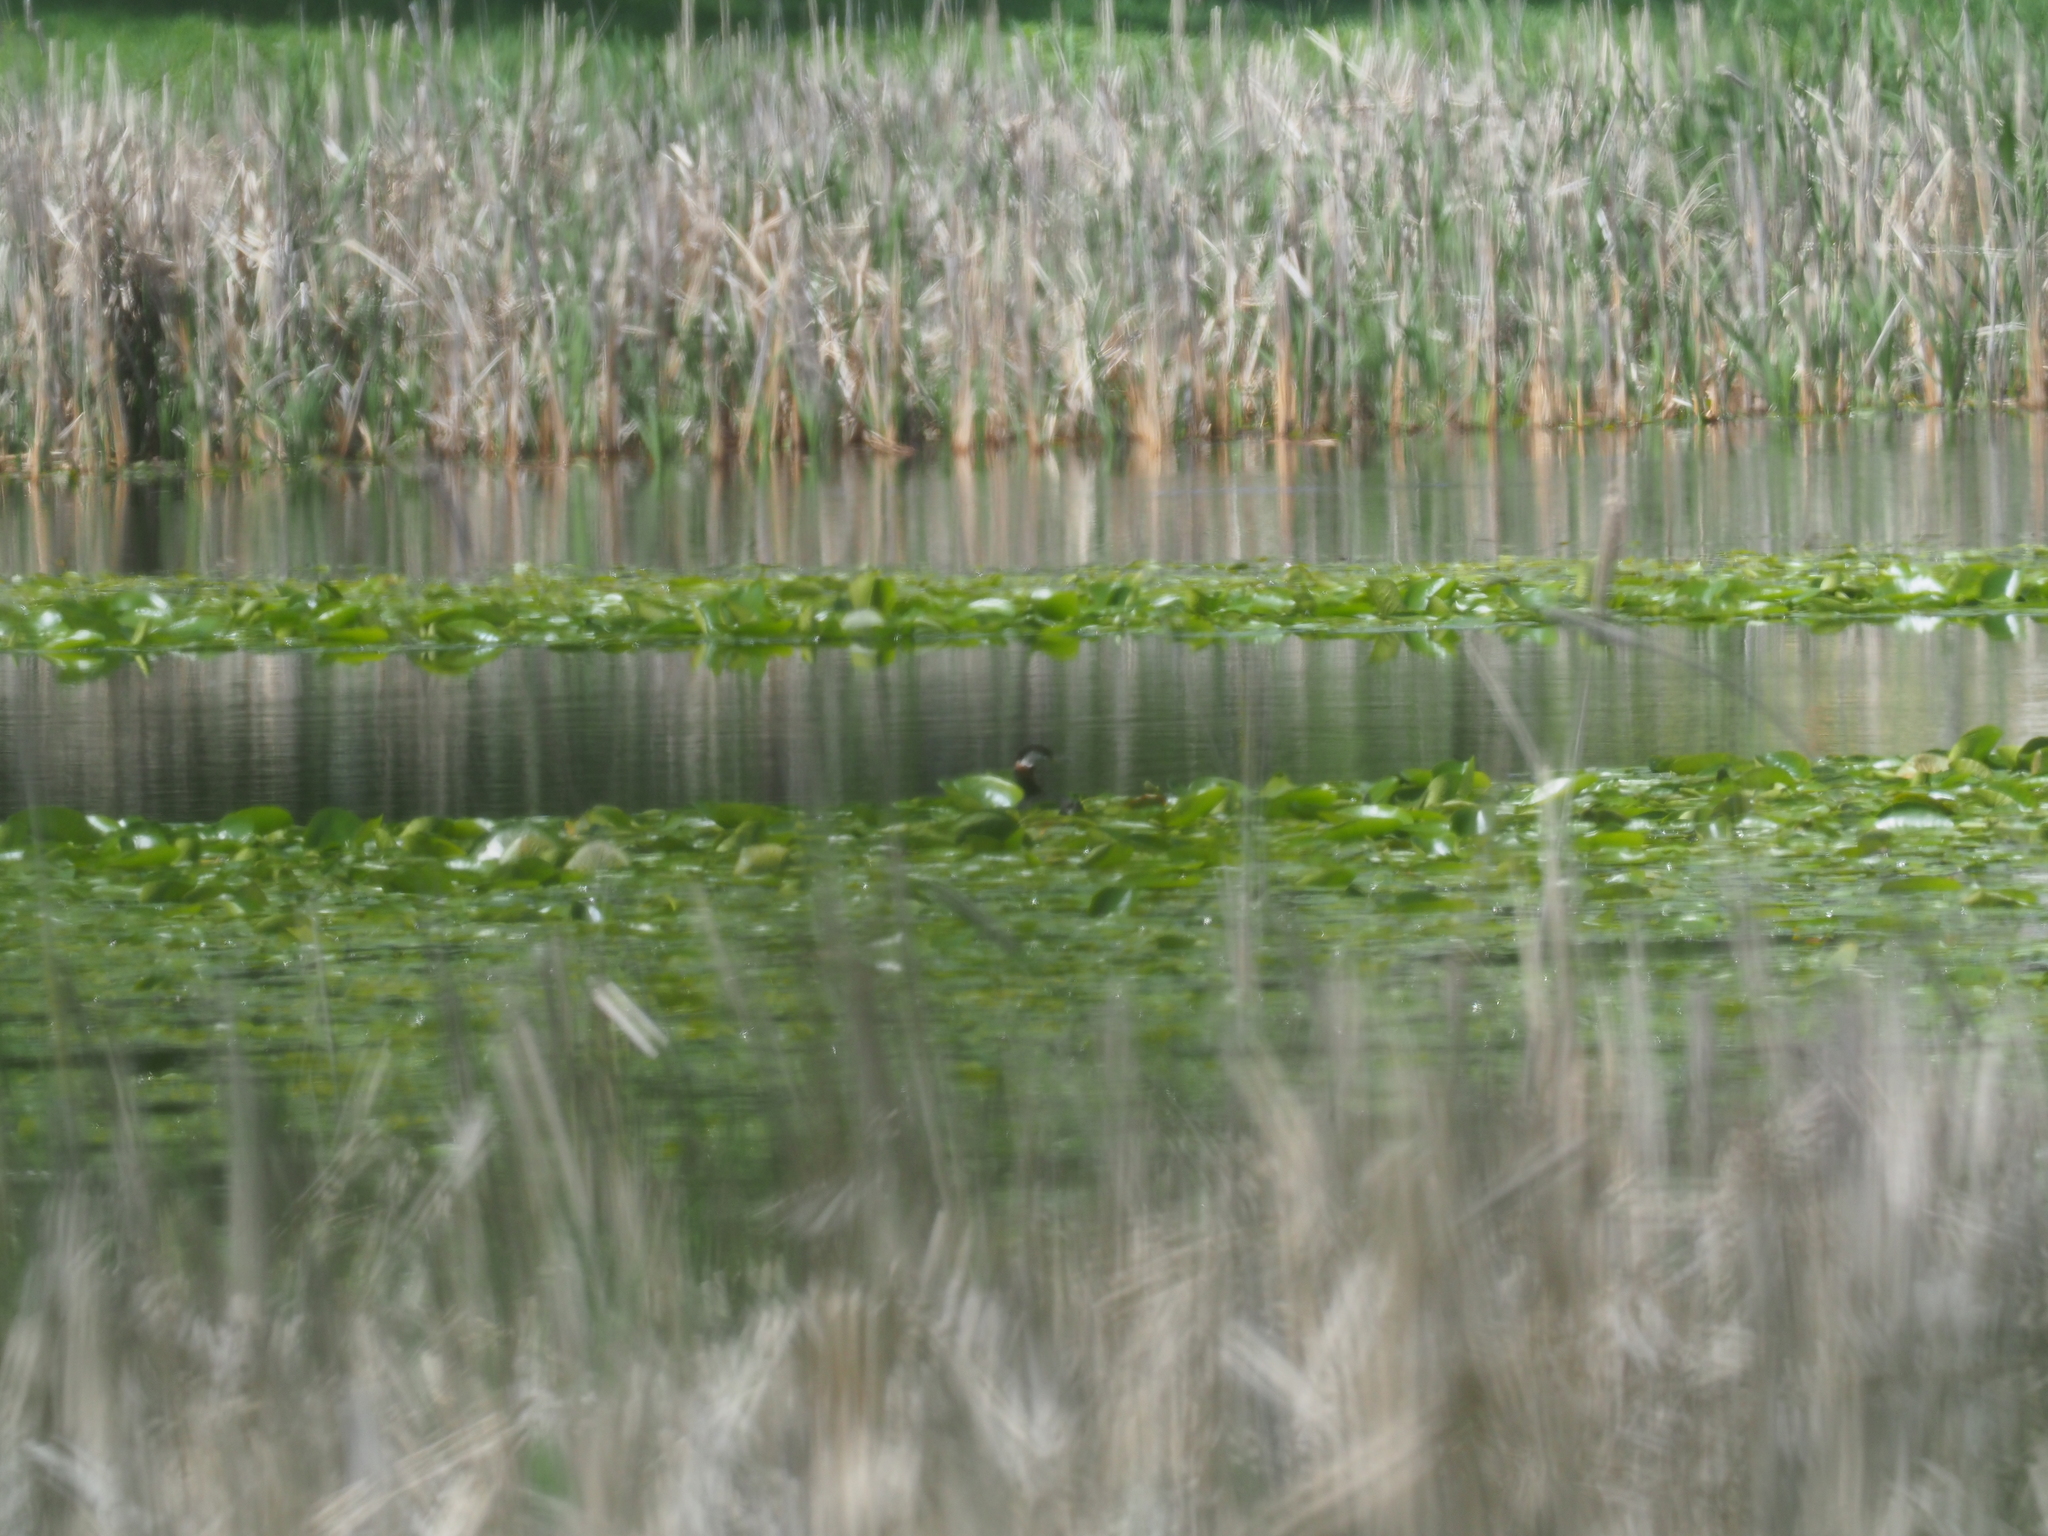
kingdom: Animalia
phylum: Chordata
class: Aves
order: Podicipediformes
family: Podicipedidae
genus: Podiceps
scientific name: Podiceps grisegena
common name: Red-necked grebe
